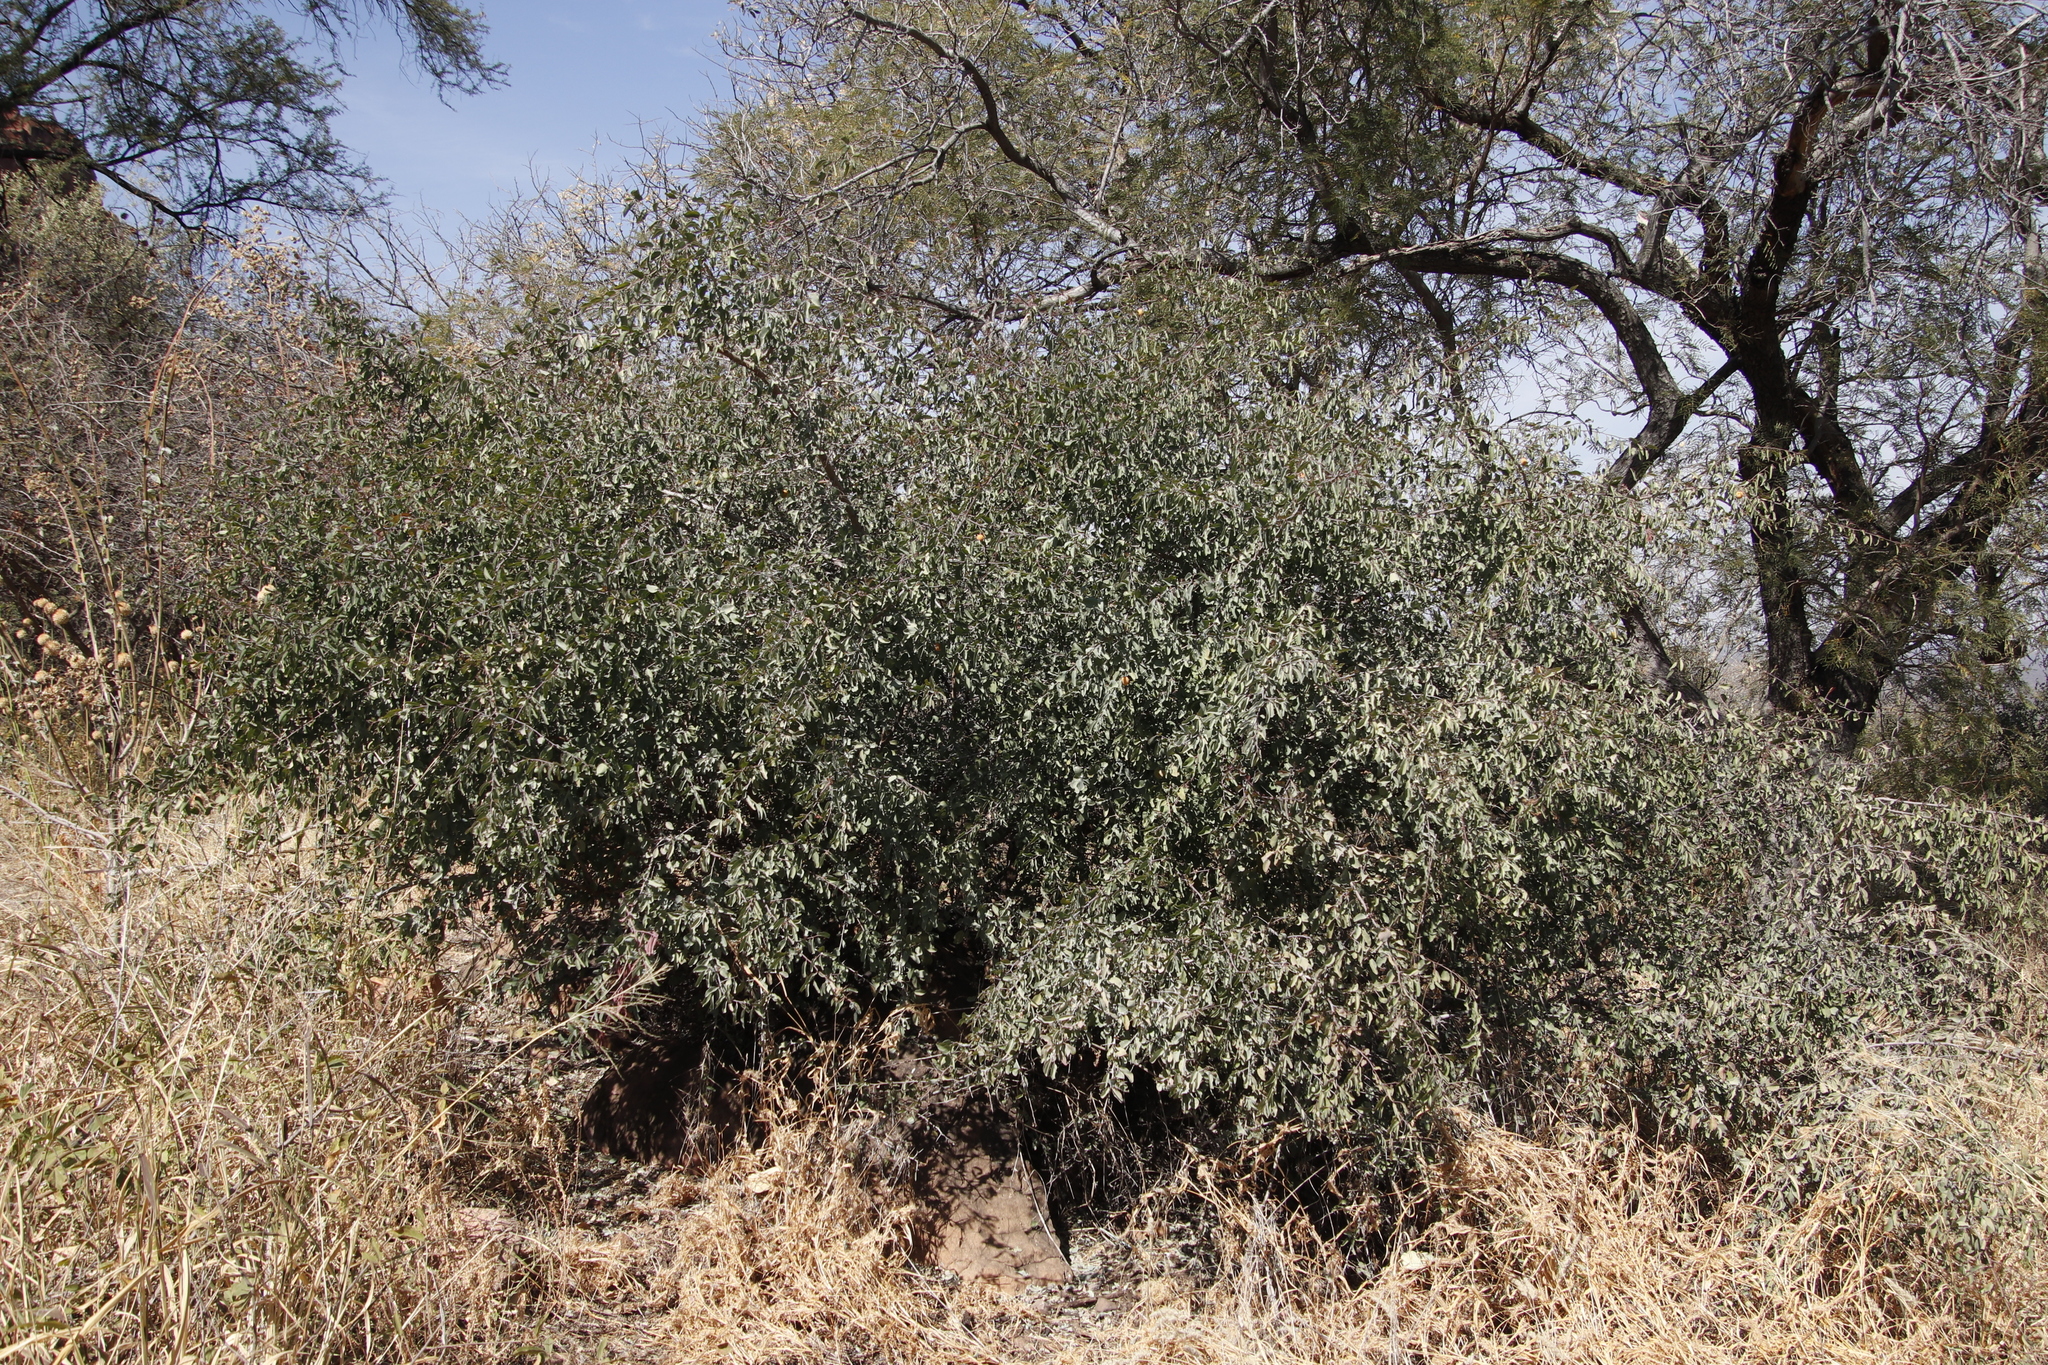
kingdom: Plantae
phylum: Tracheophyta
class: Magnoliopsida
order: Santalales
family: Ximeniaceae
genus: Ximenia
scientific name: Ximenia americana
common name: Tallowwood
